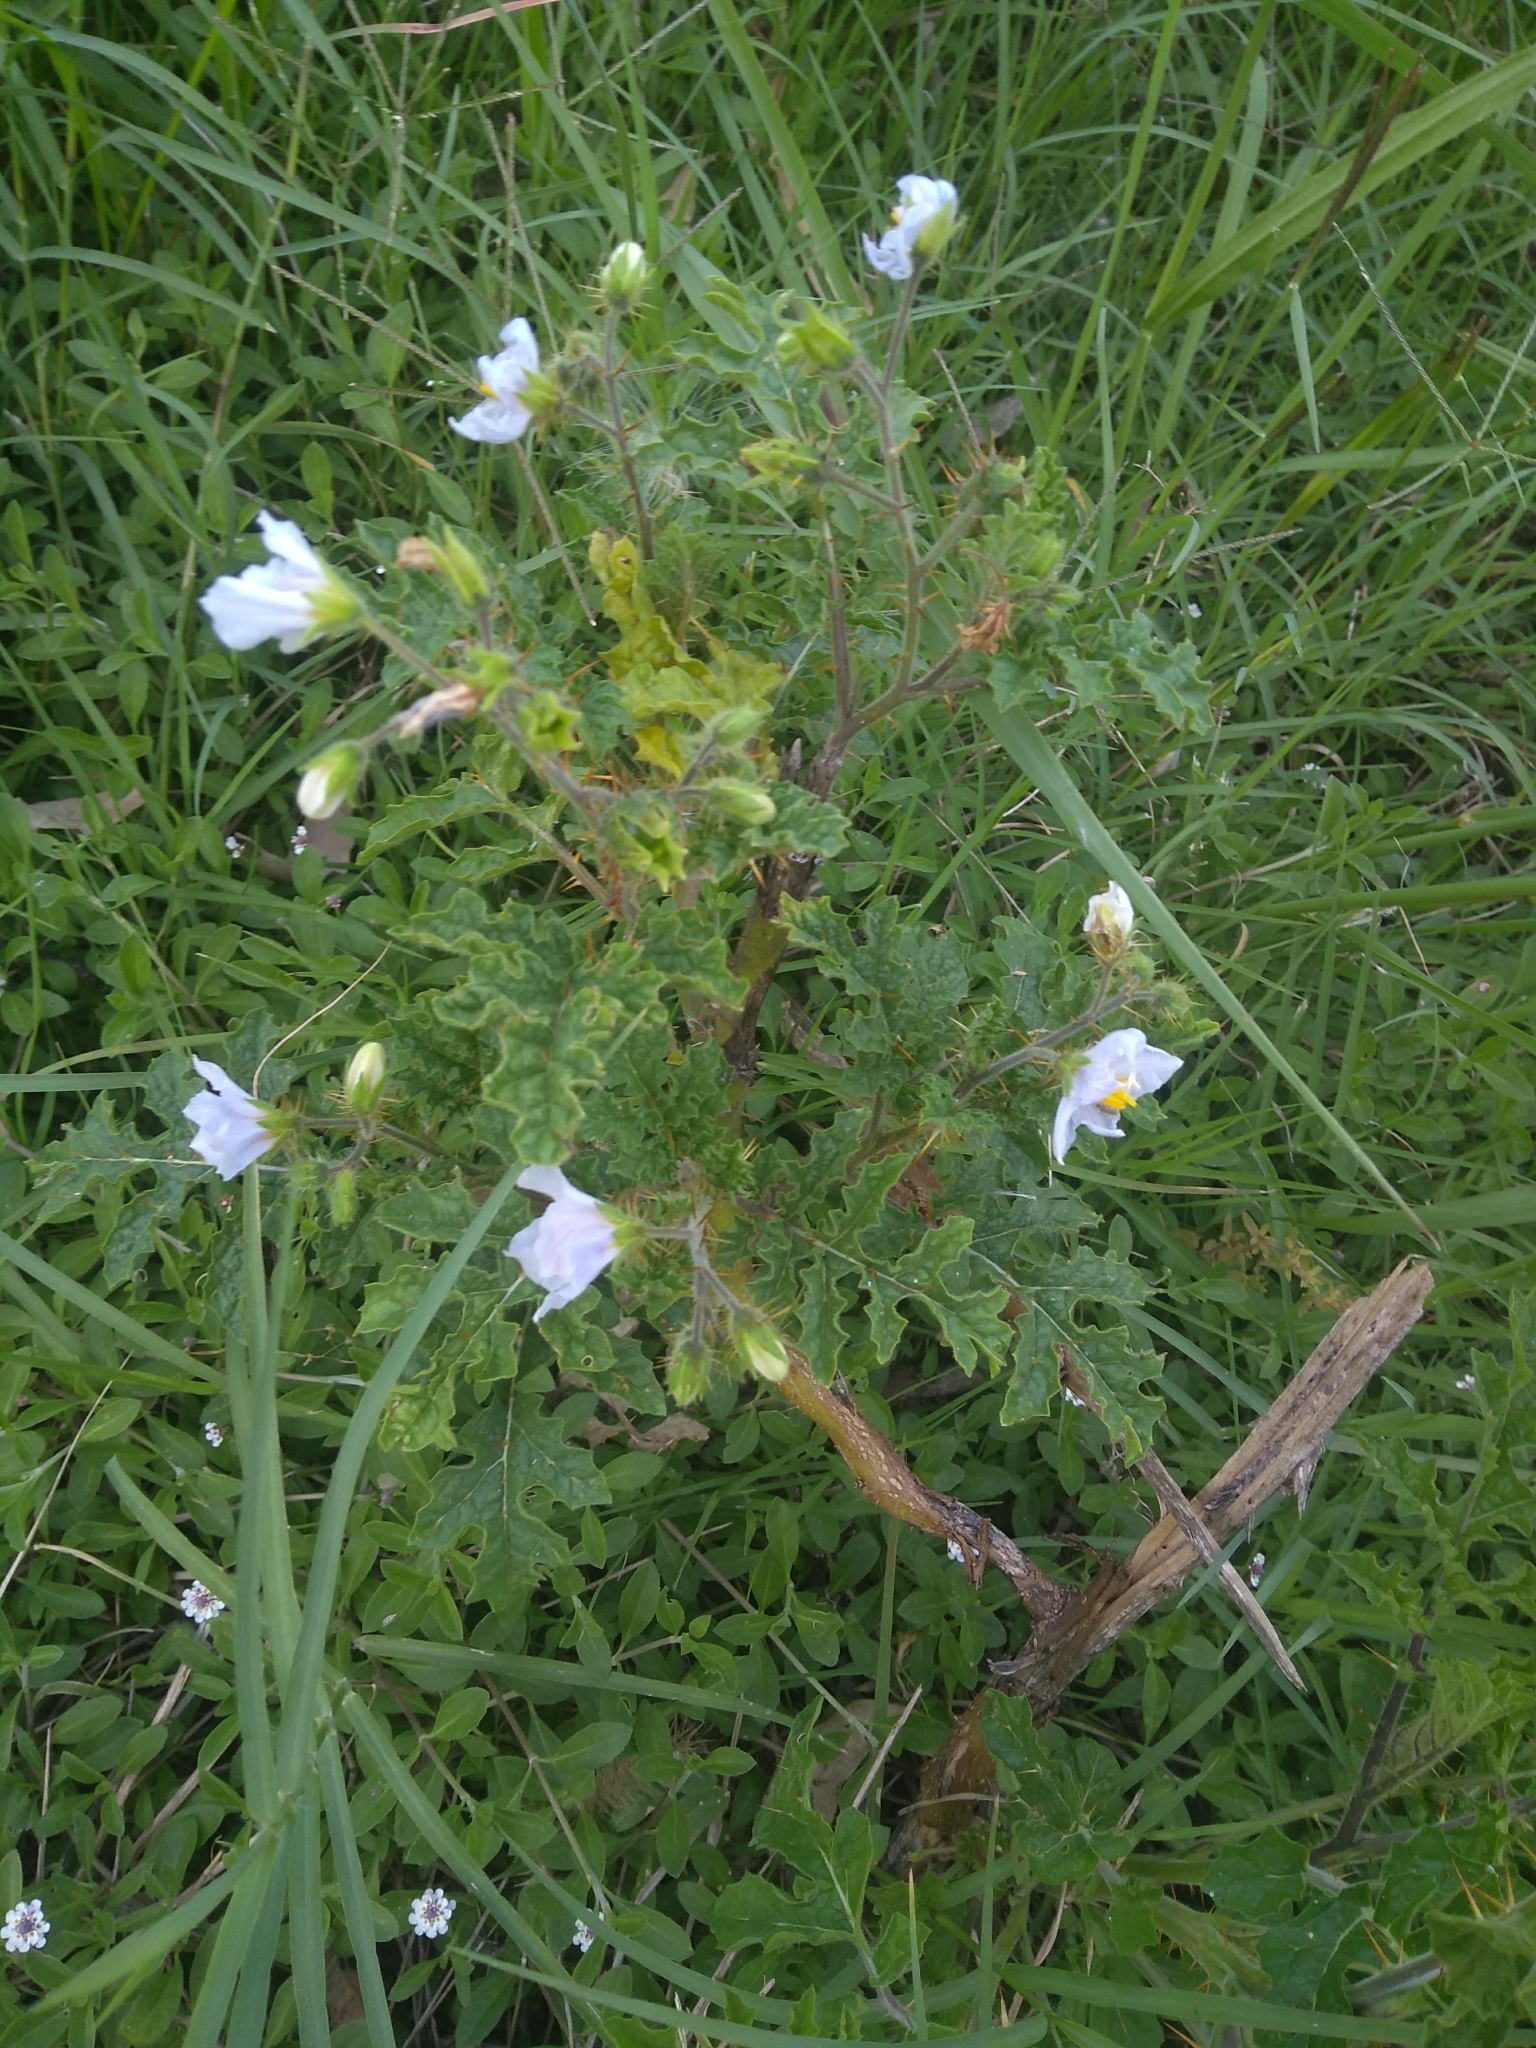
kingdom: Plantae
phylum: Tracheophyta
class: Magnoliopsida
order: Solanales
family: Solanaceae
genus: Solanum
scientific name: Solanum sisymbriifolium
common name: Red buffalo-bur
